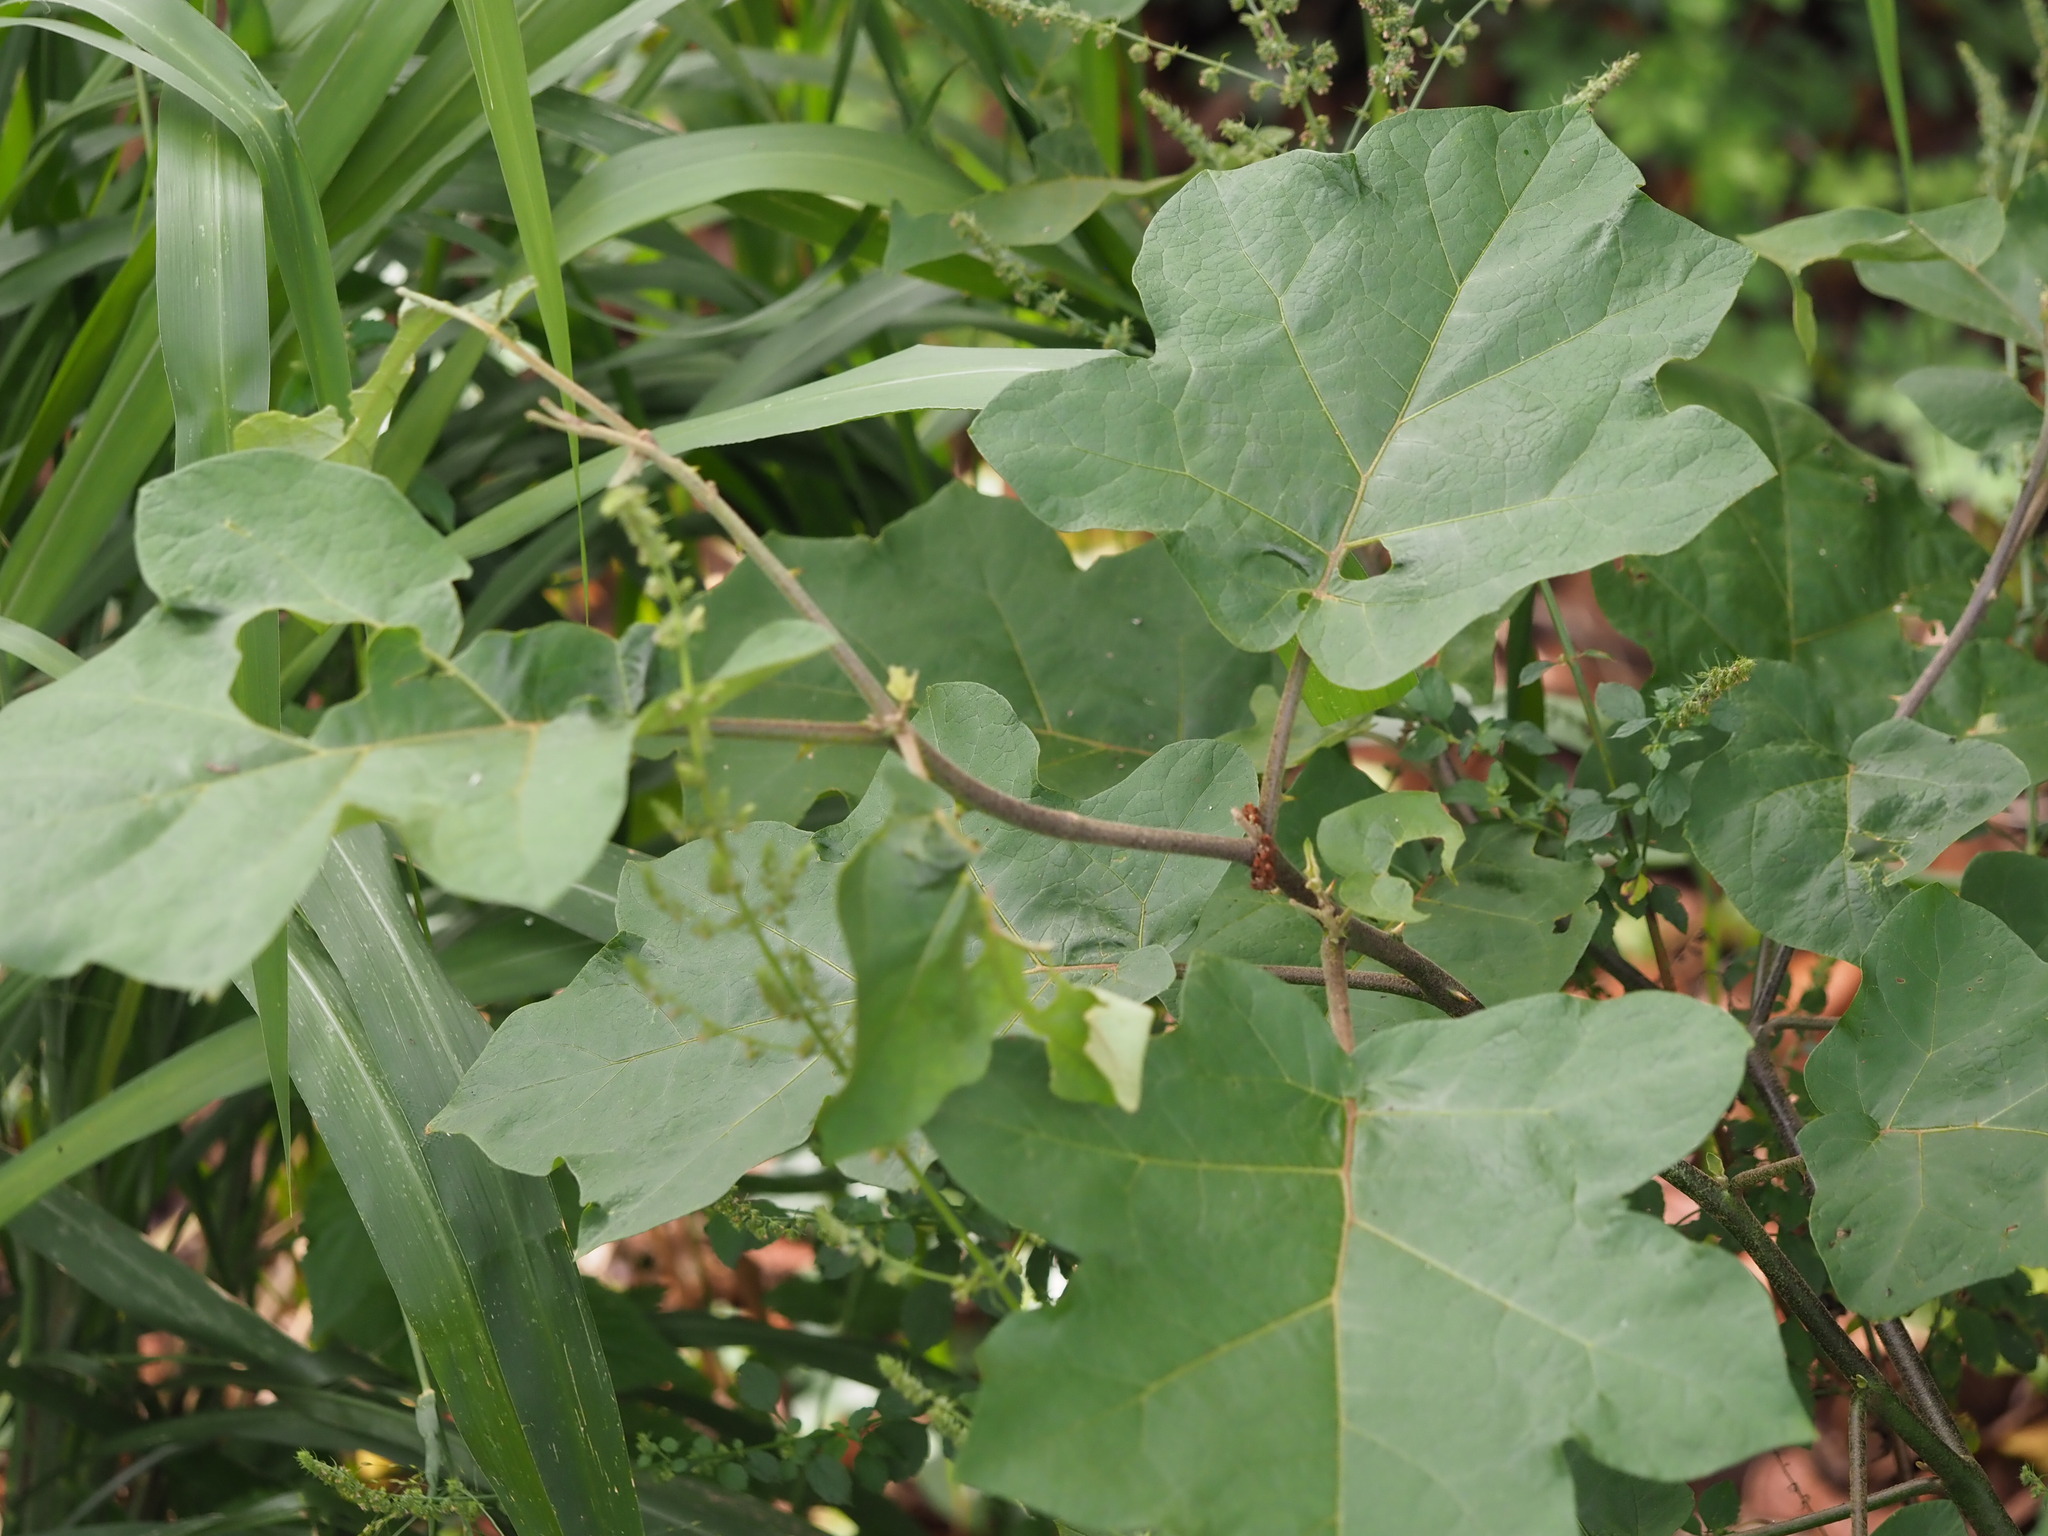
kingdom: Plantae
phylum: Tracheophyta
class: Magnoliopsida
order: Solanales
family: Solanaceae
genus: Solanum
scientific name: Solanum torvum
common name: Turkey berry
